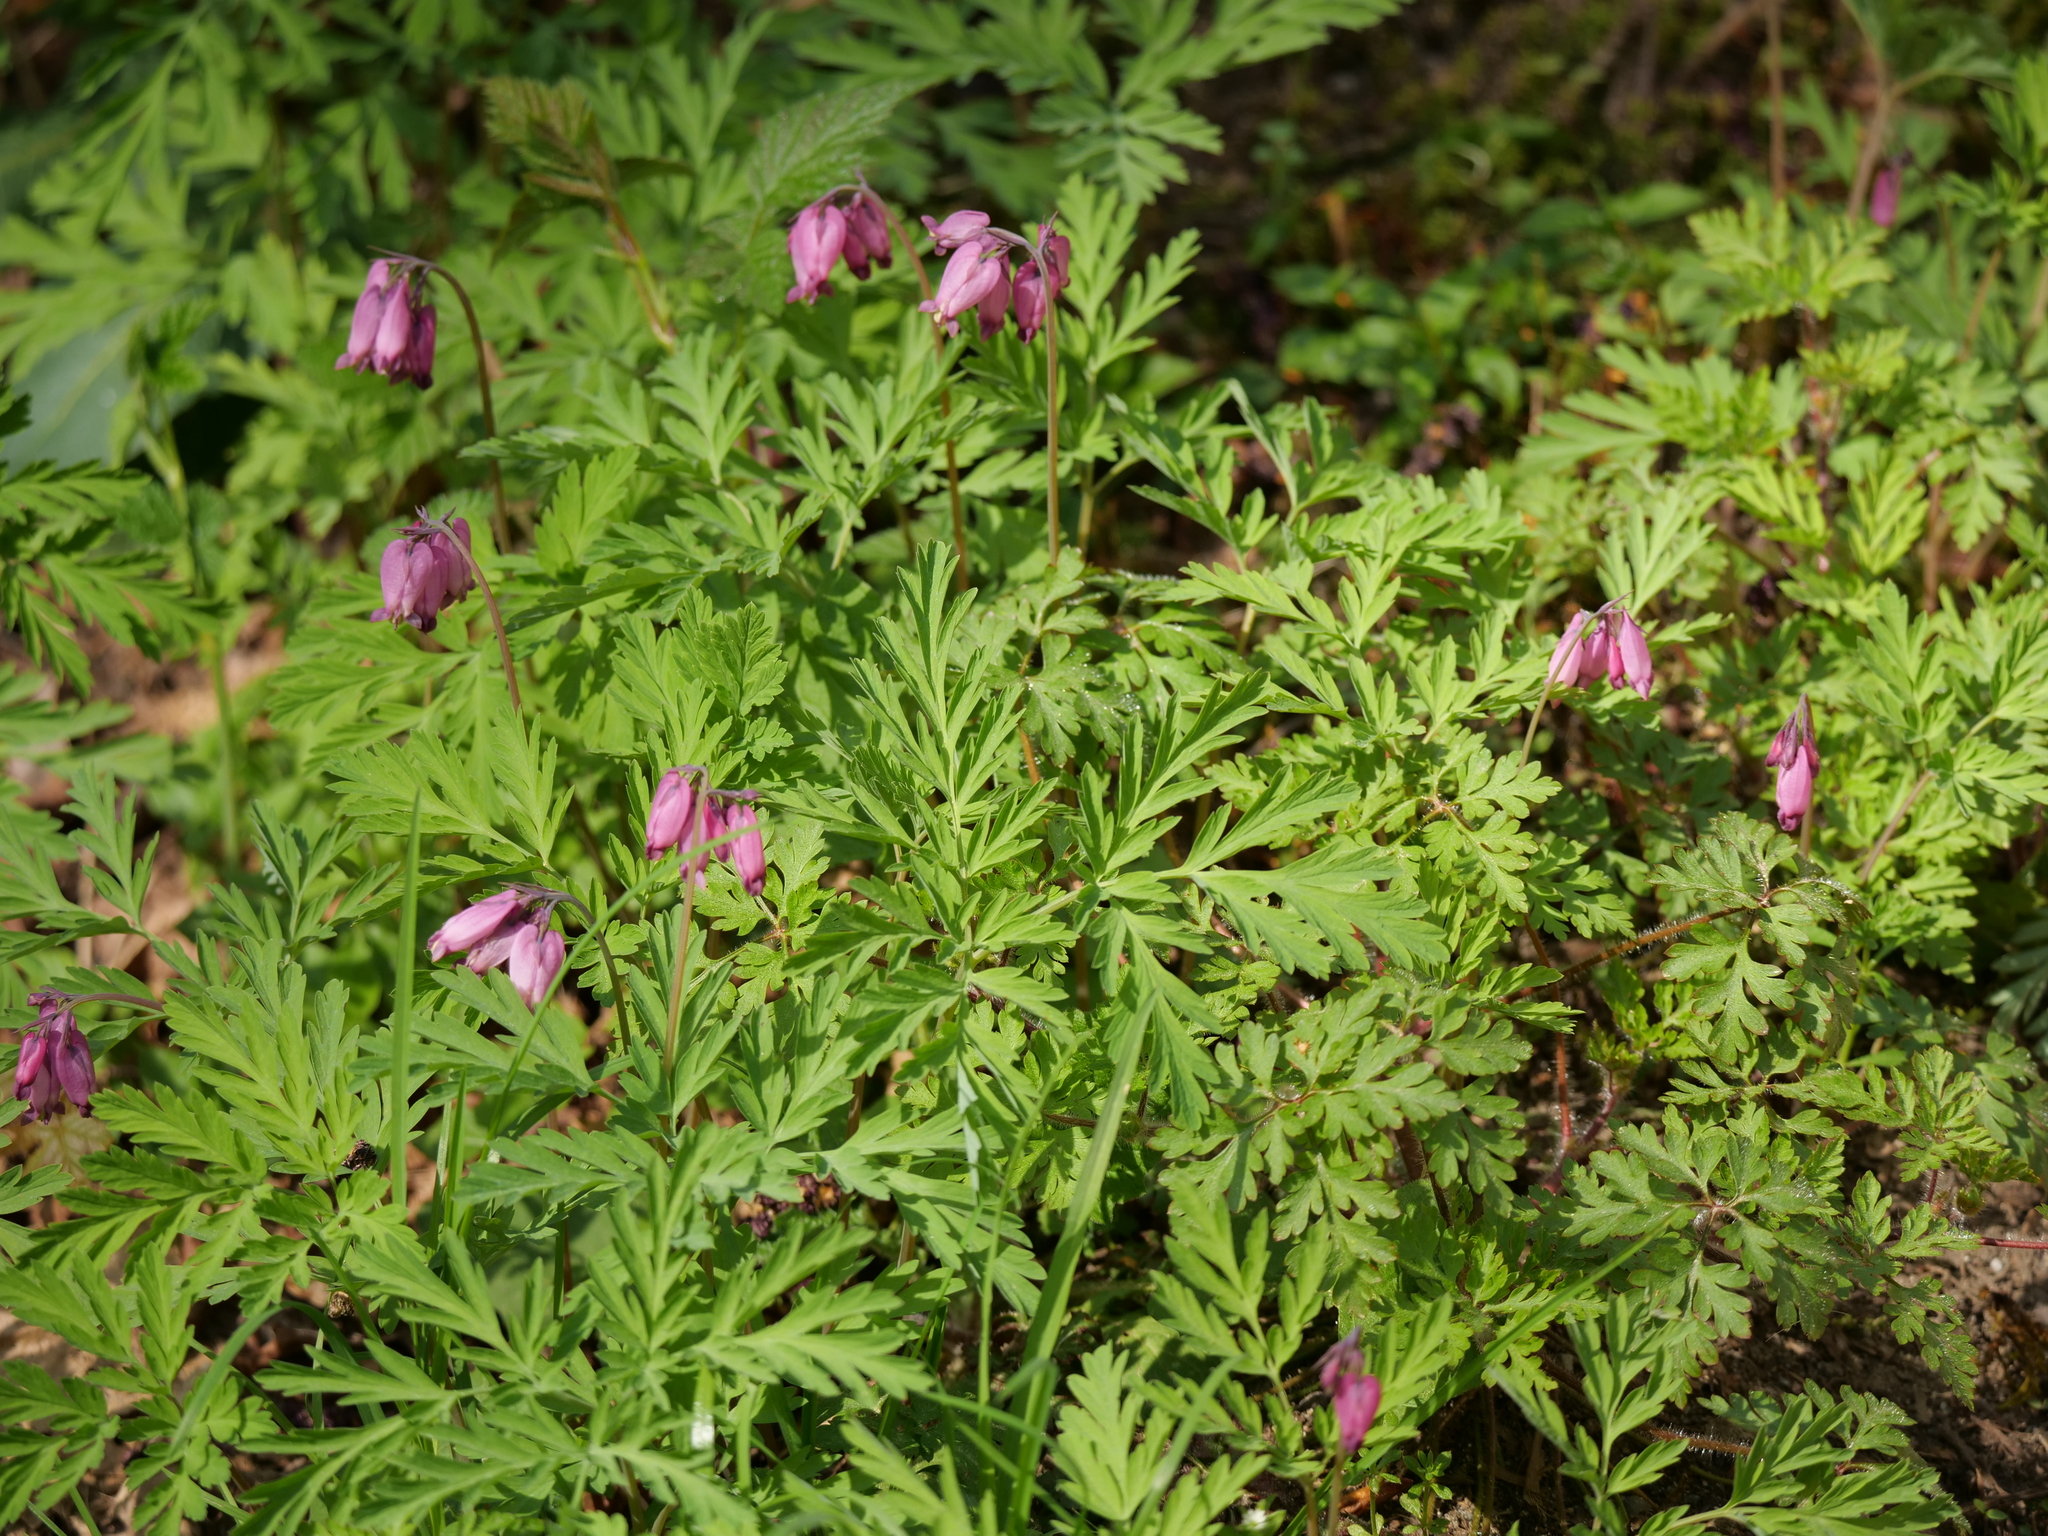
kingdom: Plantae
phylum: Tracheophyta
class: Magnoliopsida
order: Ranunculales
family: Papaveraceae
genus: Dicentra
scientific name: Dicentra formosa
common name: Bleeding-heart
